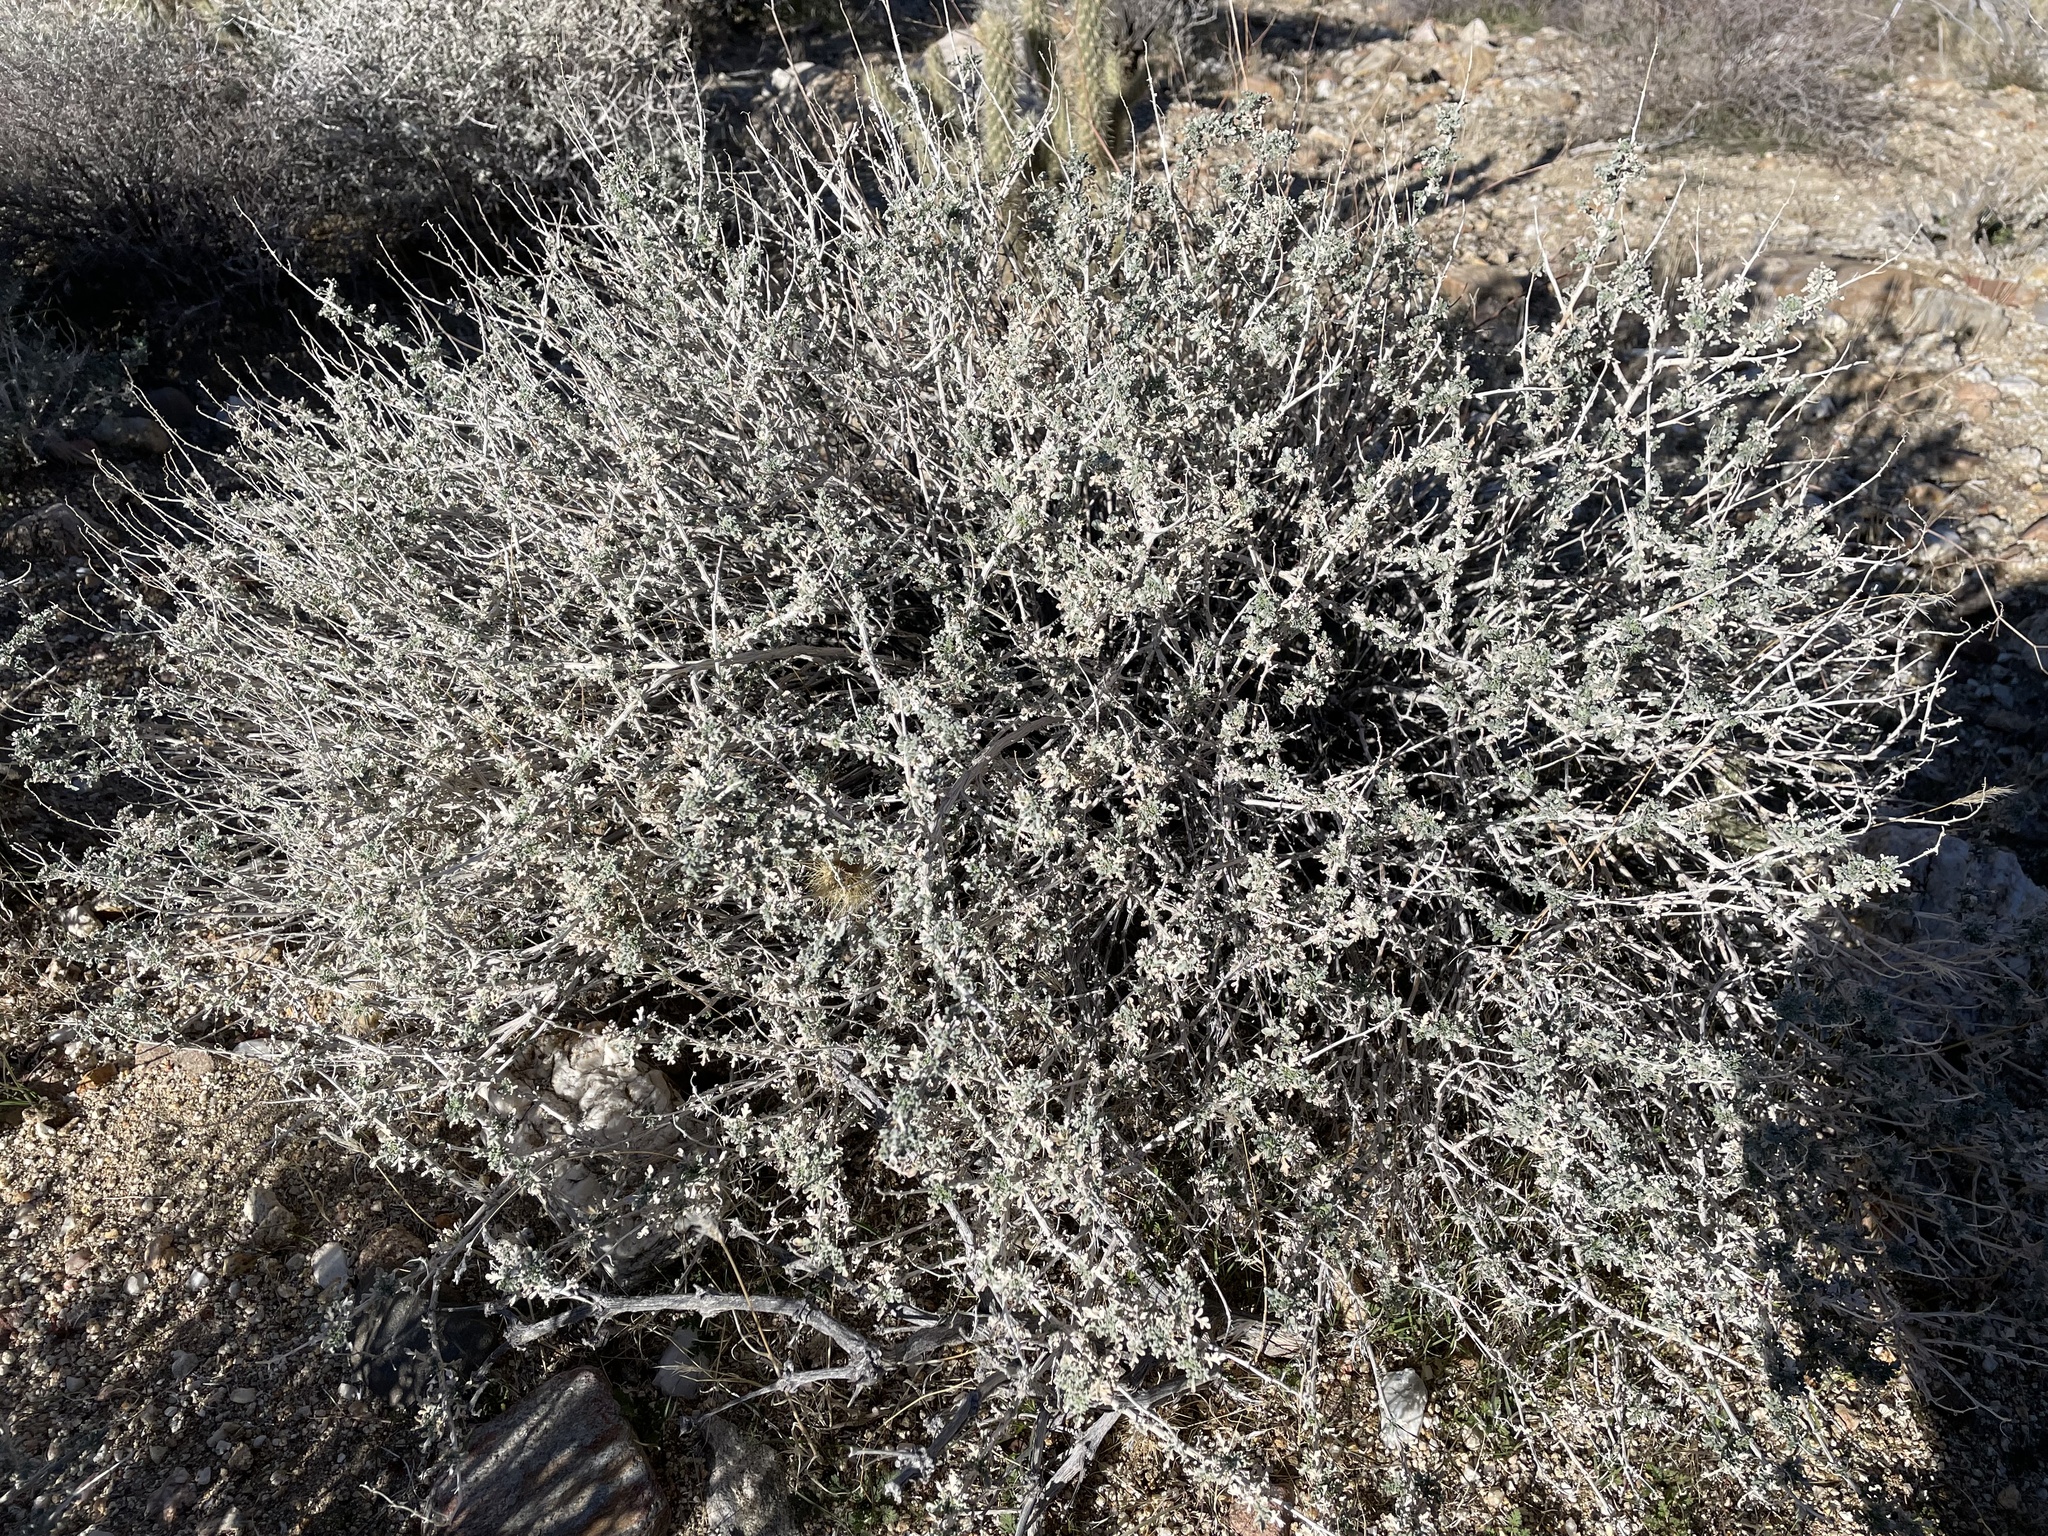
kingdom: Plantae
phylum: Tracheophyta
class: Magnoliopsida
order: Asterales
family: Asteraceae
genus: Ambrosia
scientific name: Ambrosia dumosa
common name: Bur-sage
